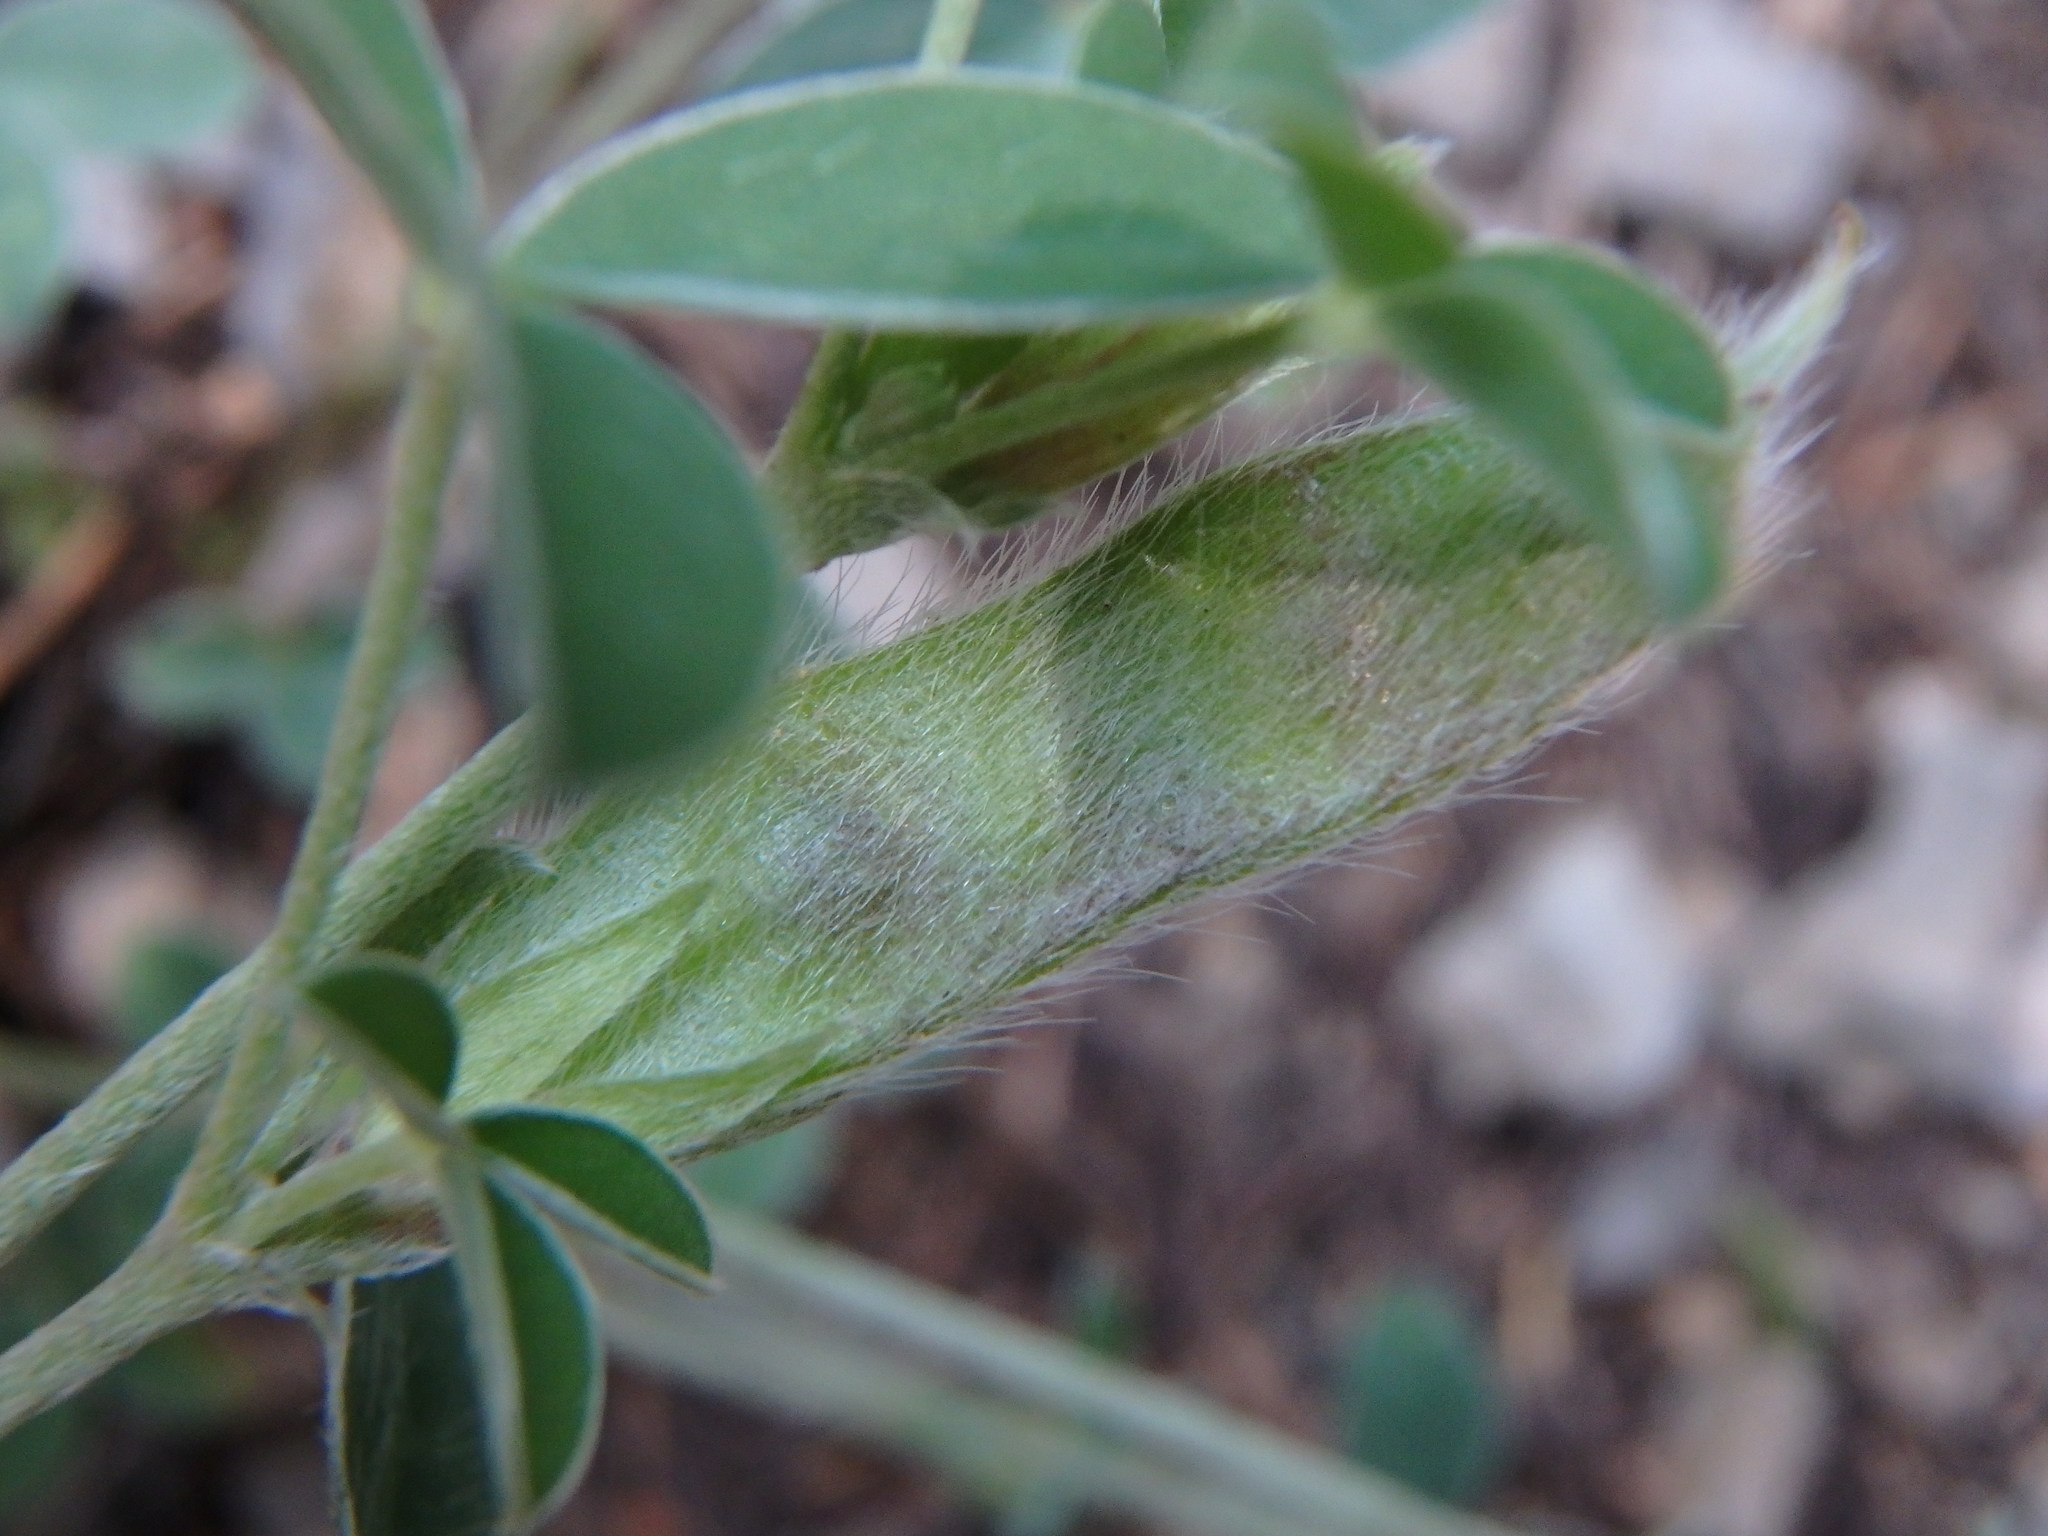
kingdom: Plantae
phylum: Tracheophyta
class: Magnoliopsida
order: Fabales
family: Fabaceae
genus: Argyrolobium
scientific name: Argyrolobium zanonii
